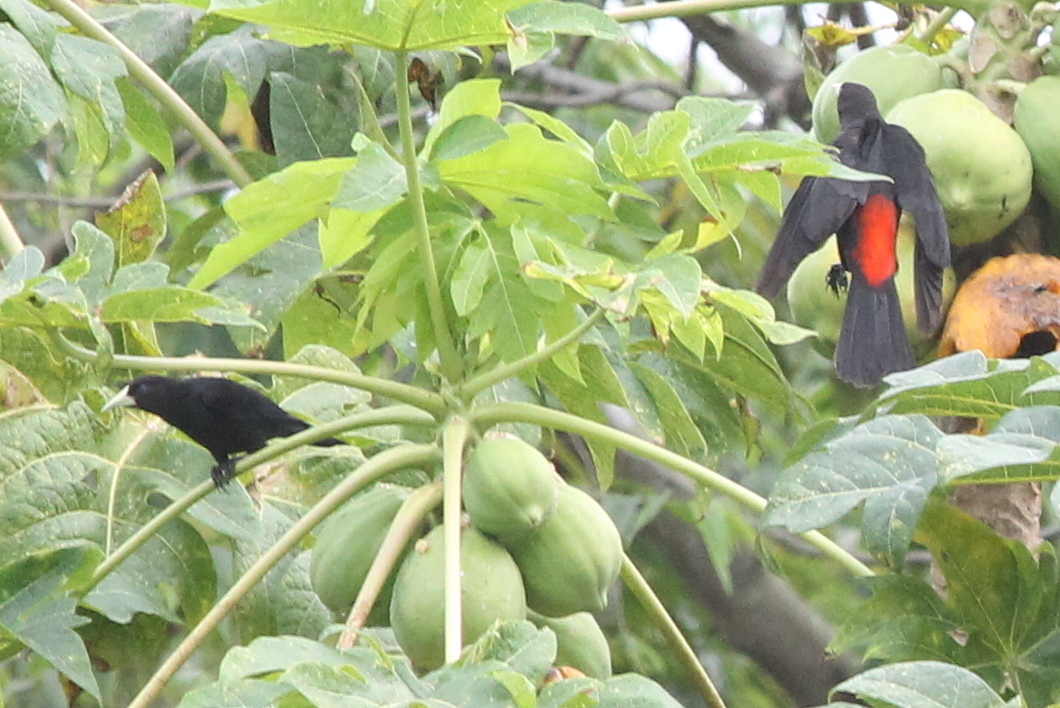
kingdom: Animalia
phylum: Chordata
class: Aves
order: Passeriformes
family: Icteridae
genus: Cacicus
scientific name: Cacicus haemorrhous
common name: Red-rumped cacique
